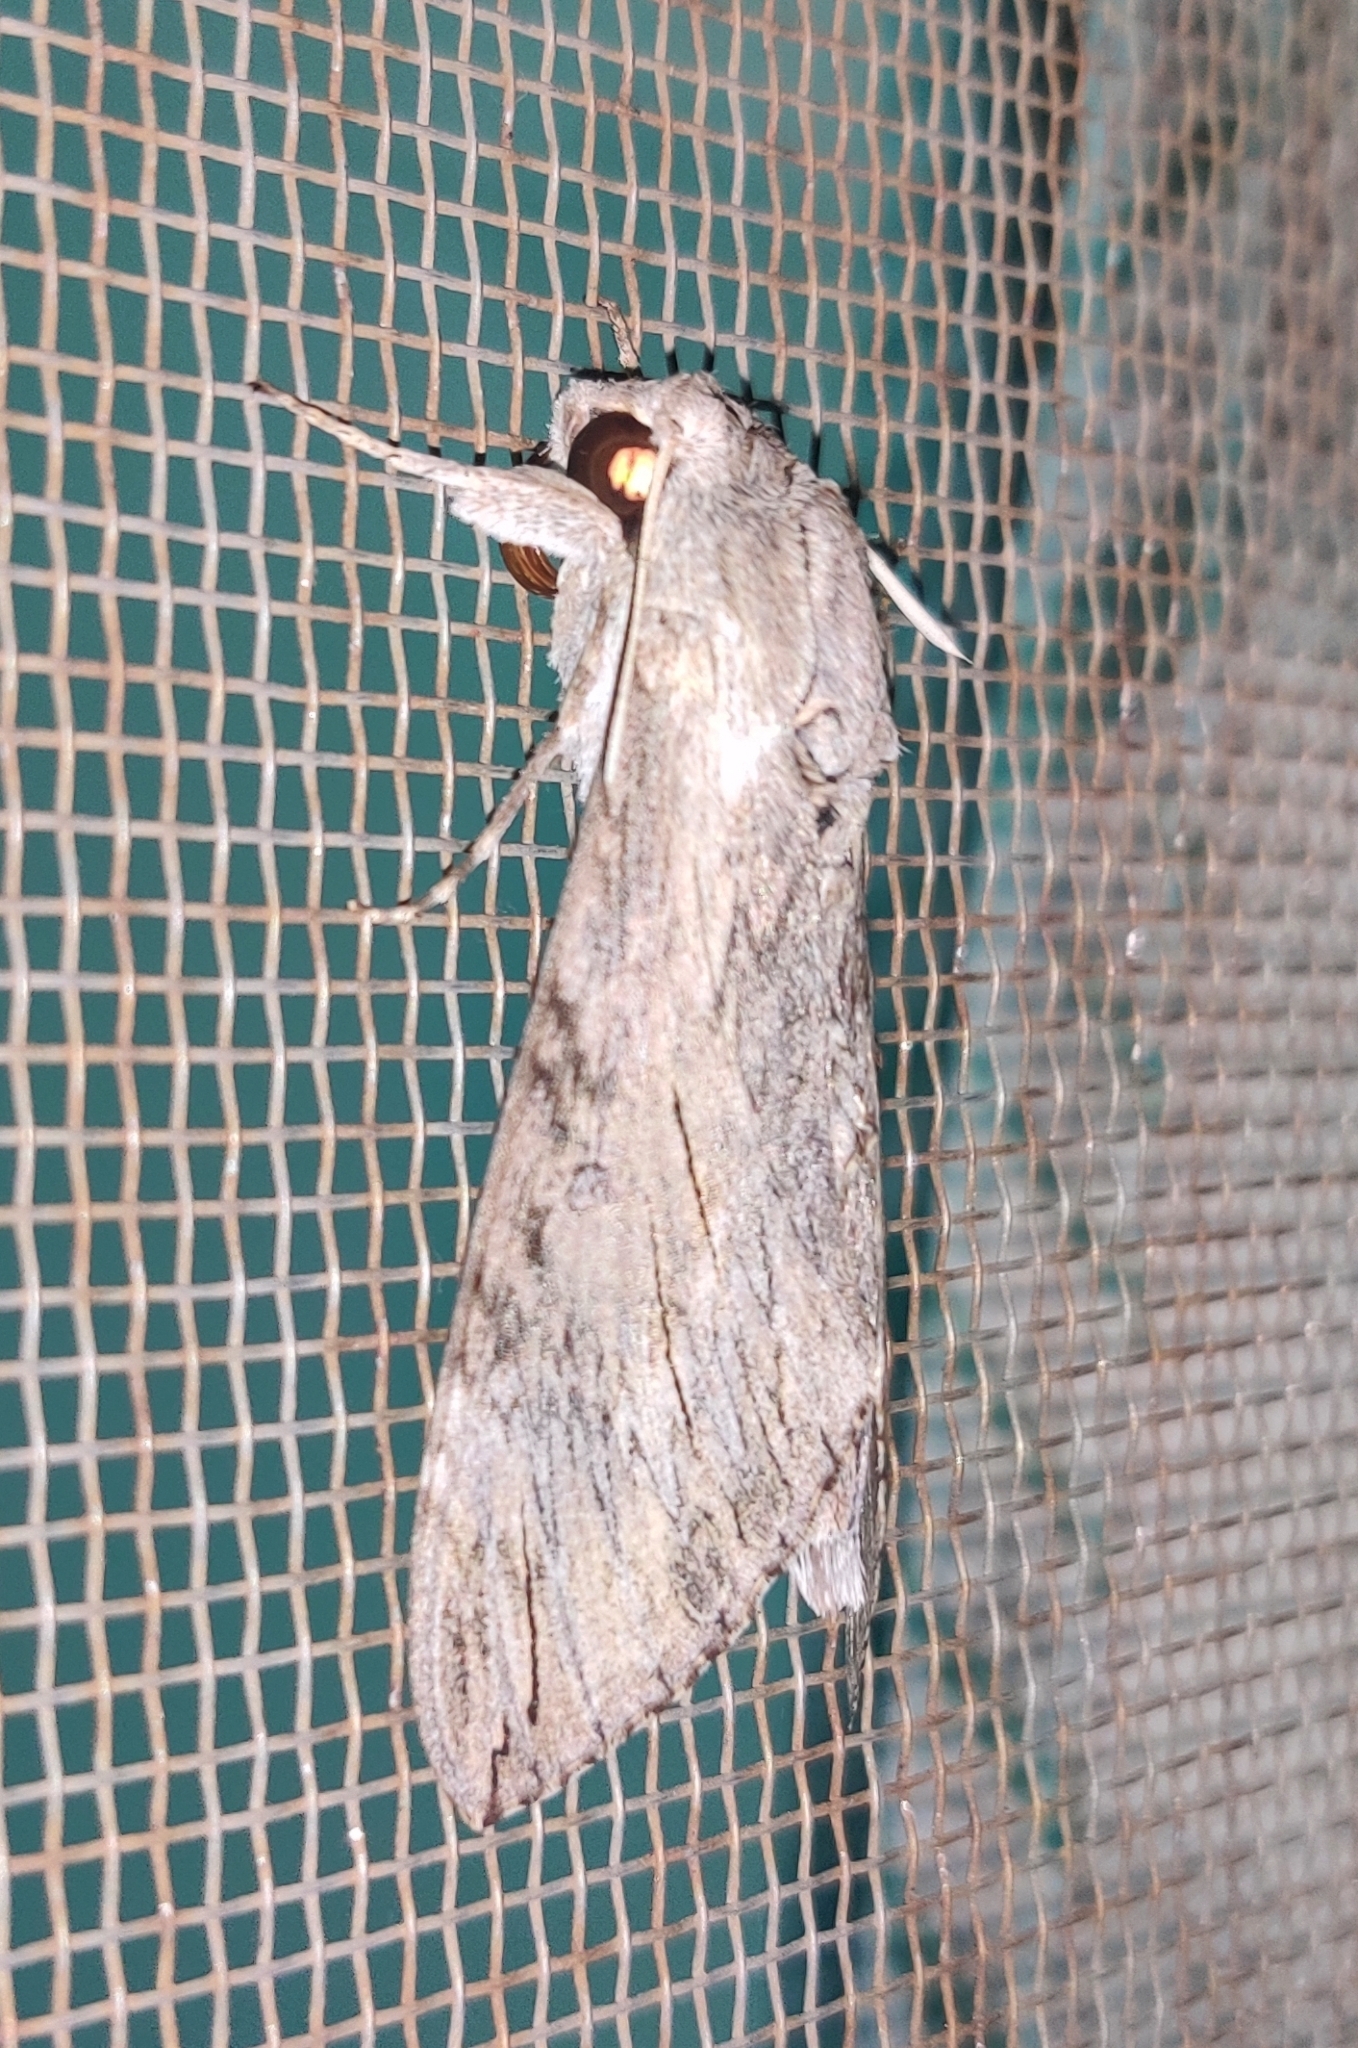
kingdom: Animalia
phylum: Arthropoda
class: Insecta
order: Lepidoptera
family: Sphingidae
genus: Agrius
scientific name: Agrius convolvuli
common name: Convolvulus hawkmoth
